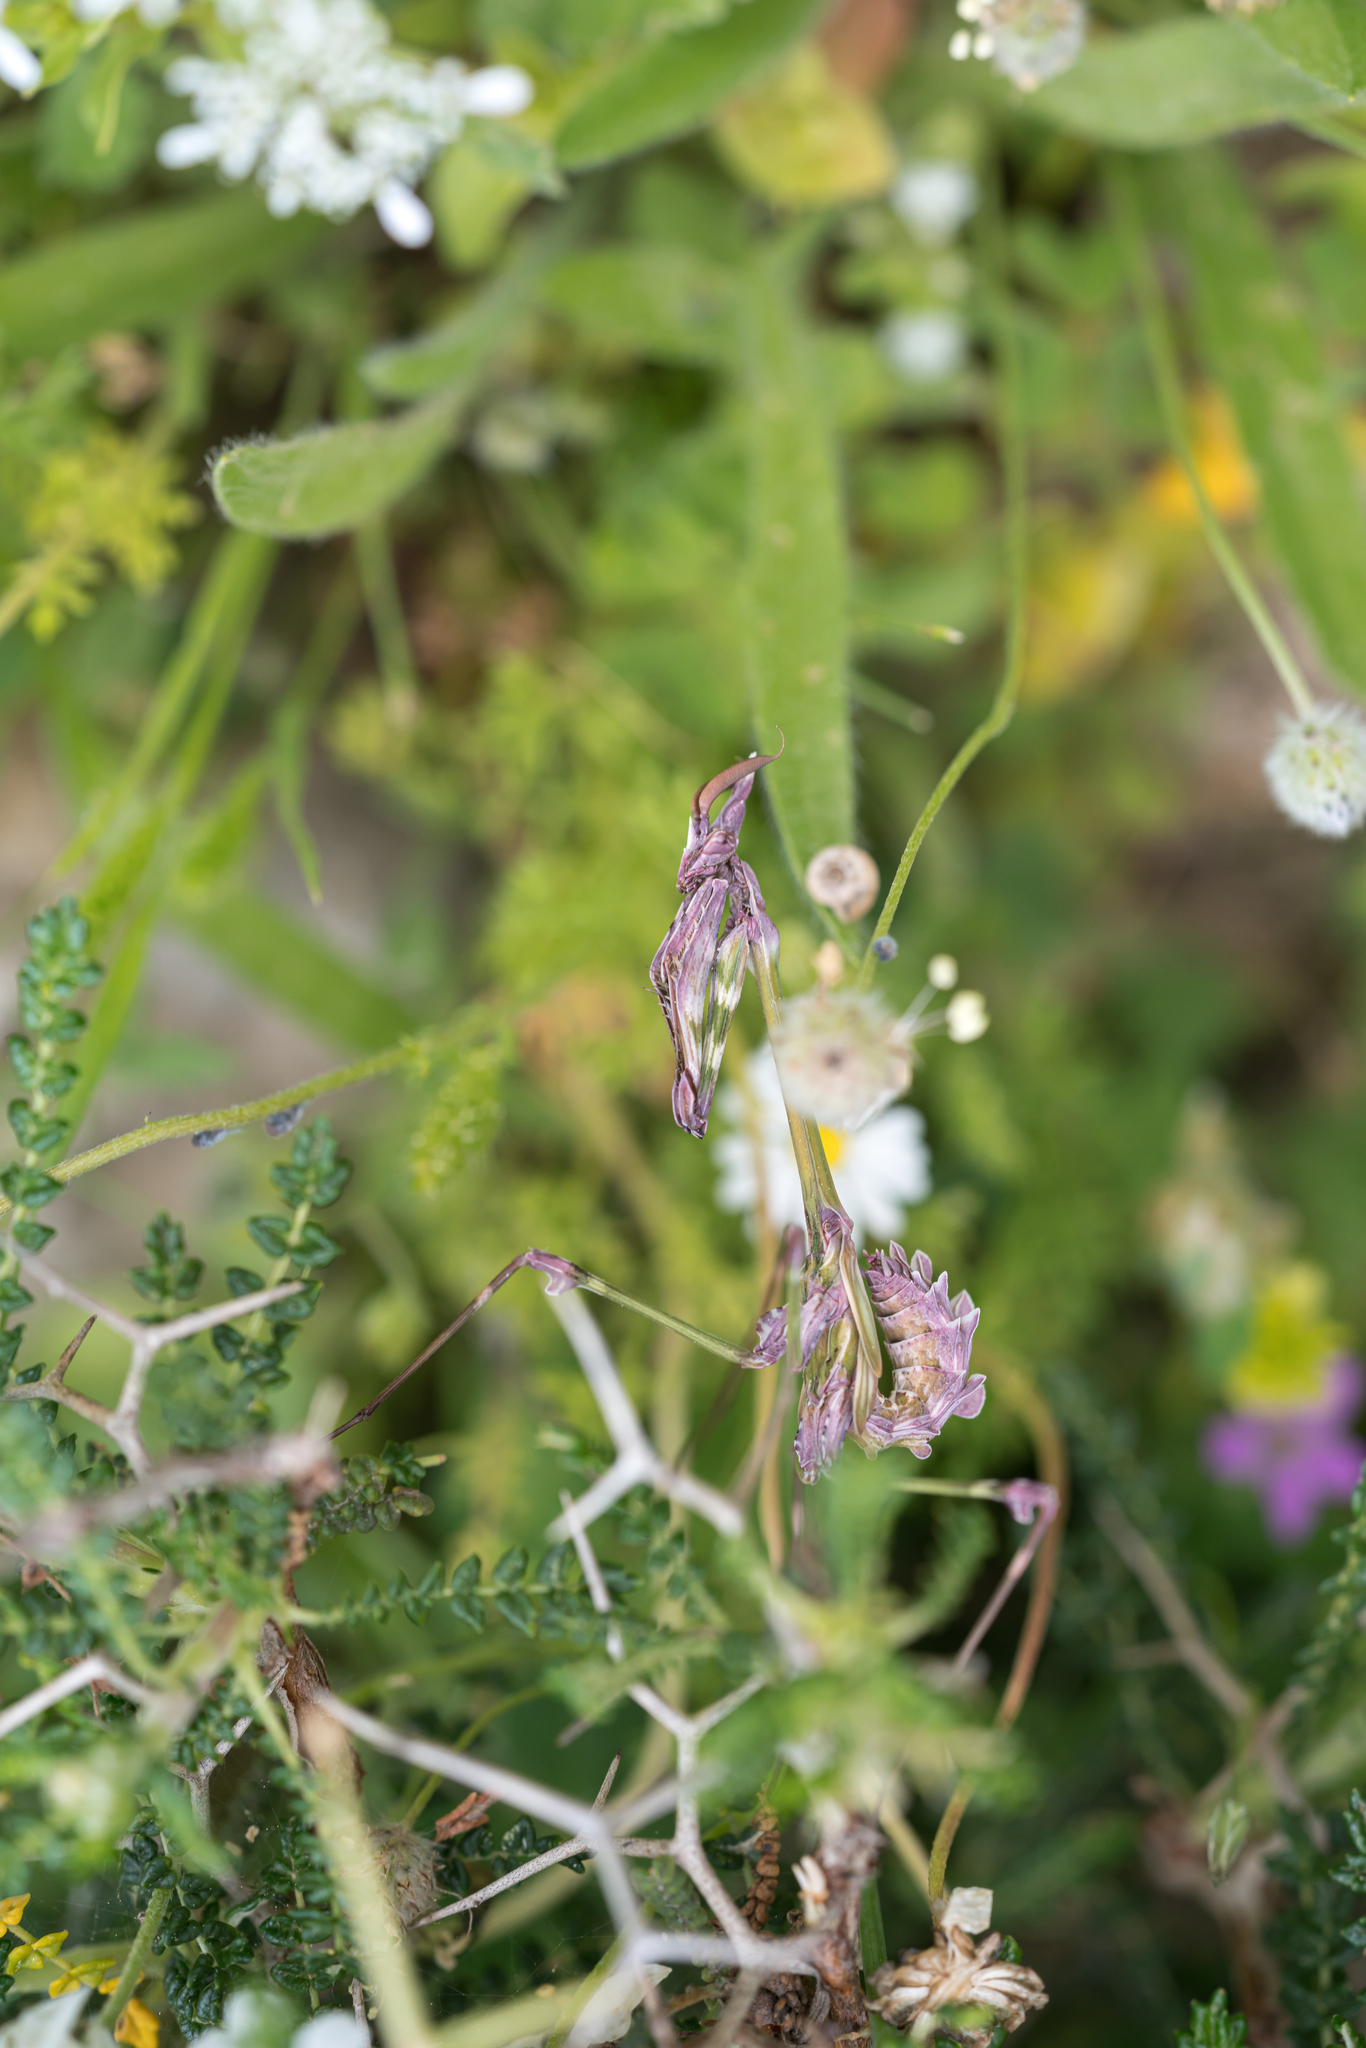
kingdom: Animalia
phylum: Arthropoda
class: Insecta
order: Mantodea
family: Empusidae
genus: Empusa
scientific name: Empusa fasciata
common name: Devil's mare
